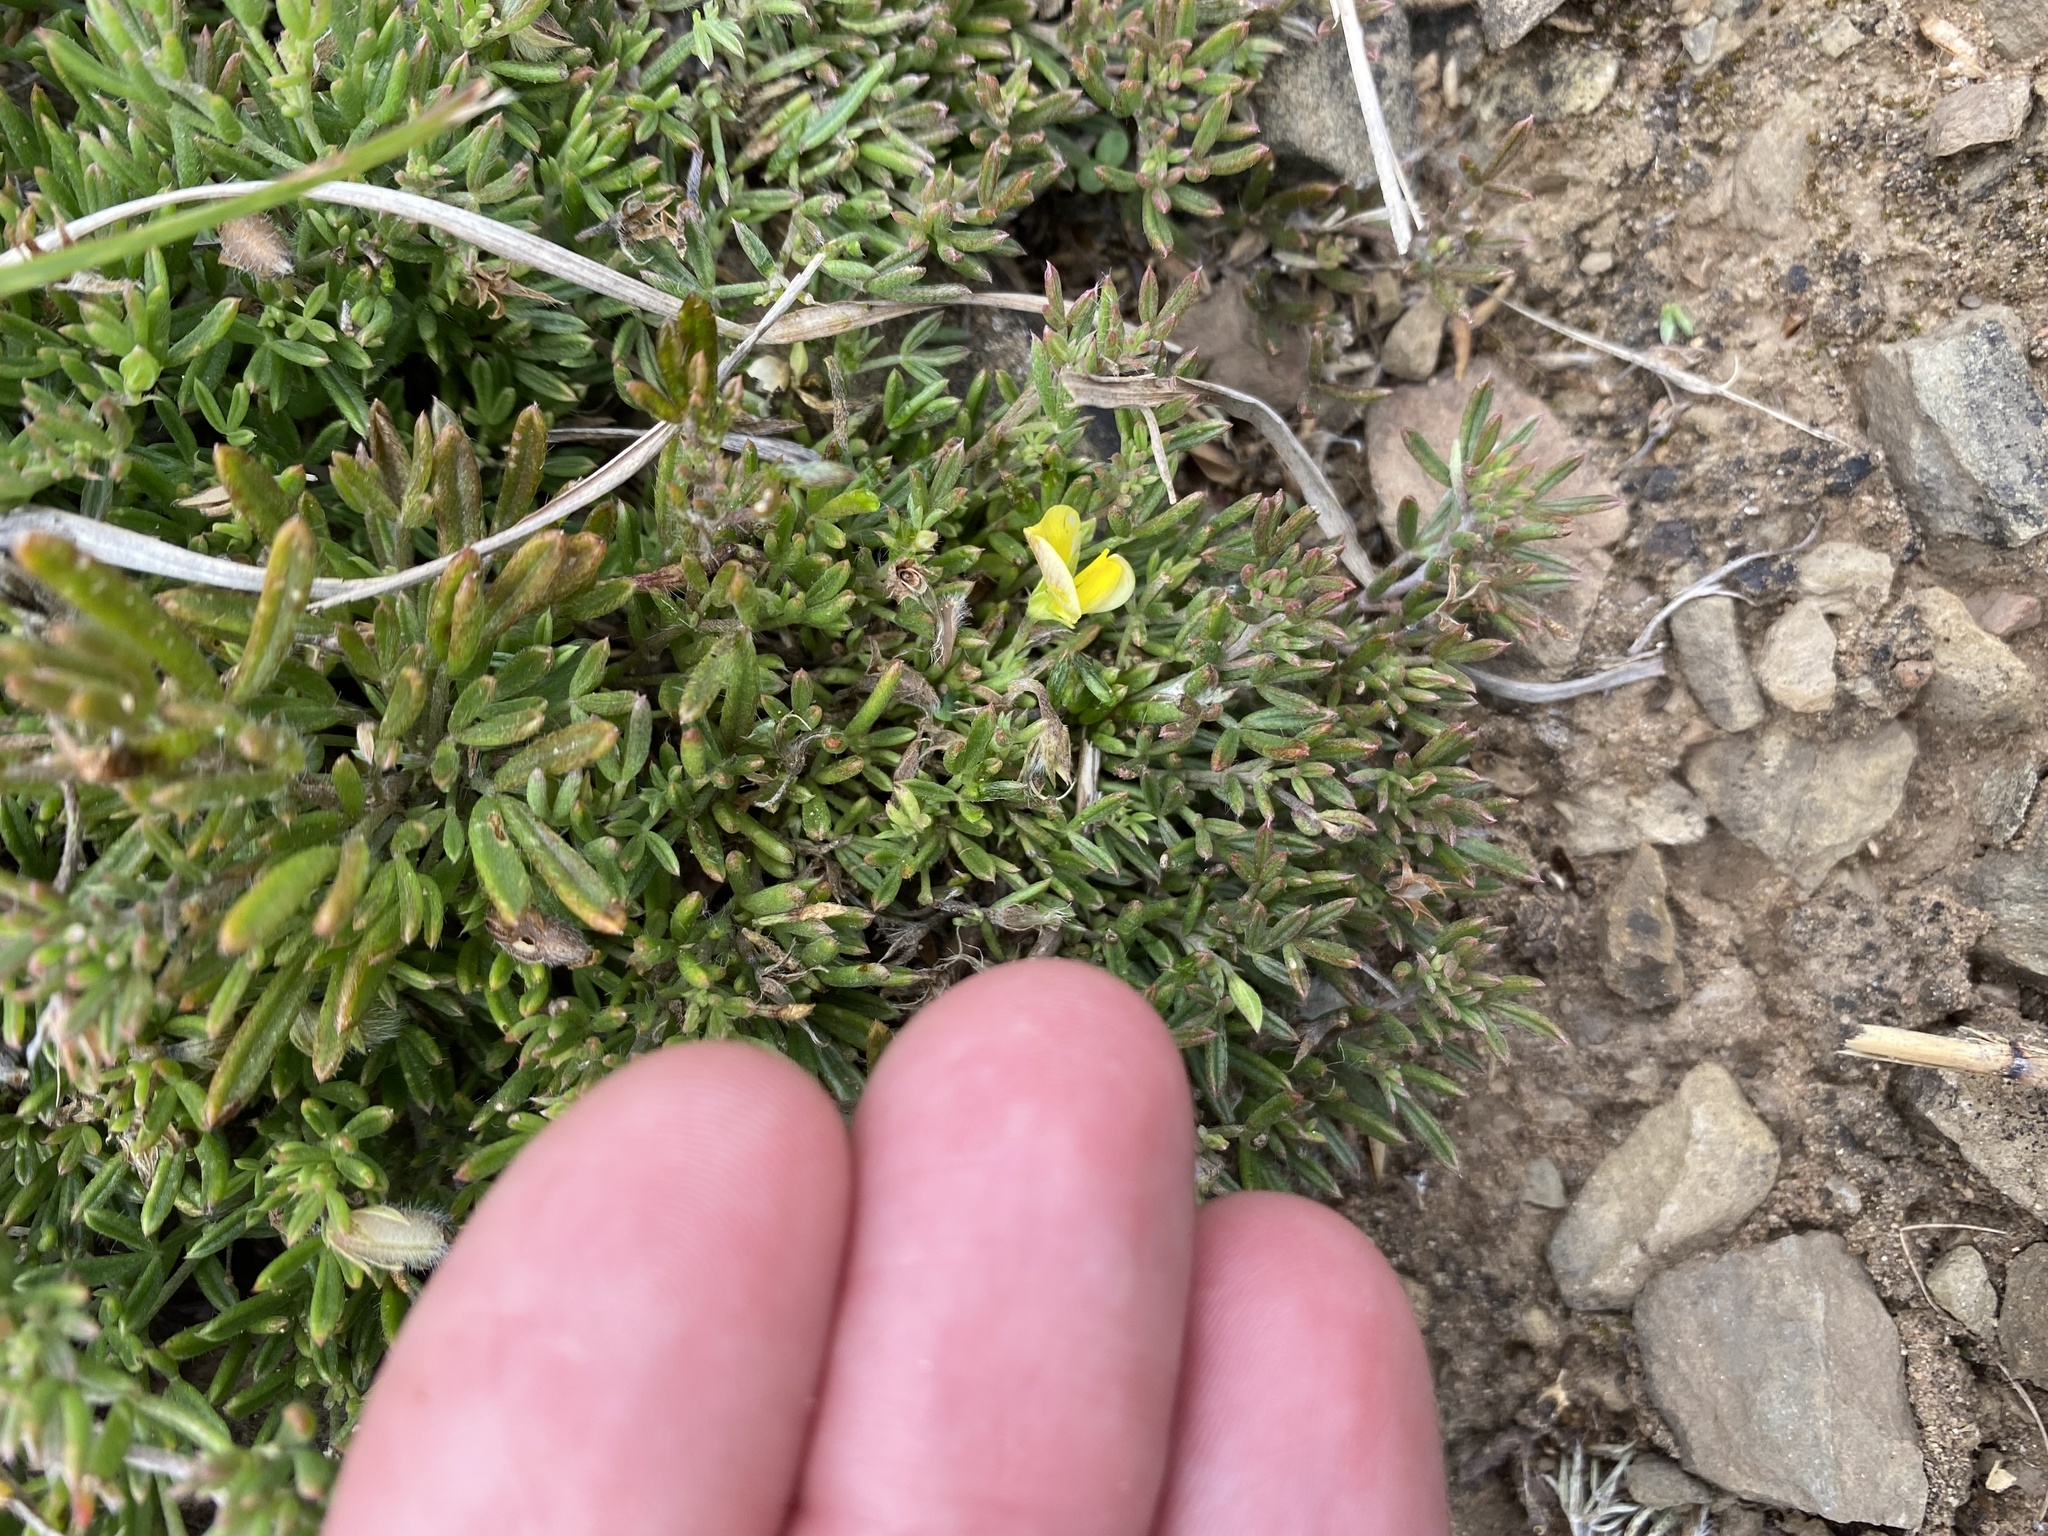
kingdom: Plantae
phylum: Tracheophyta
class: Magnoliopsida
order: Fabales
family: Fabaceae
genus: Lotononis
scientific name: Lotononis pungens
